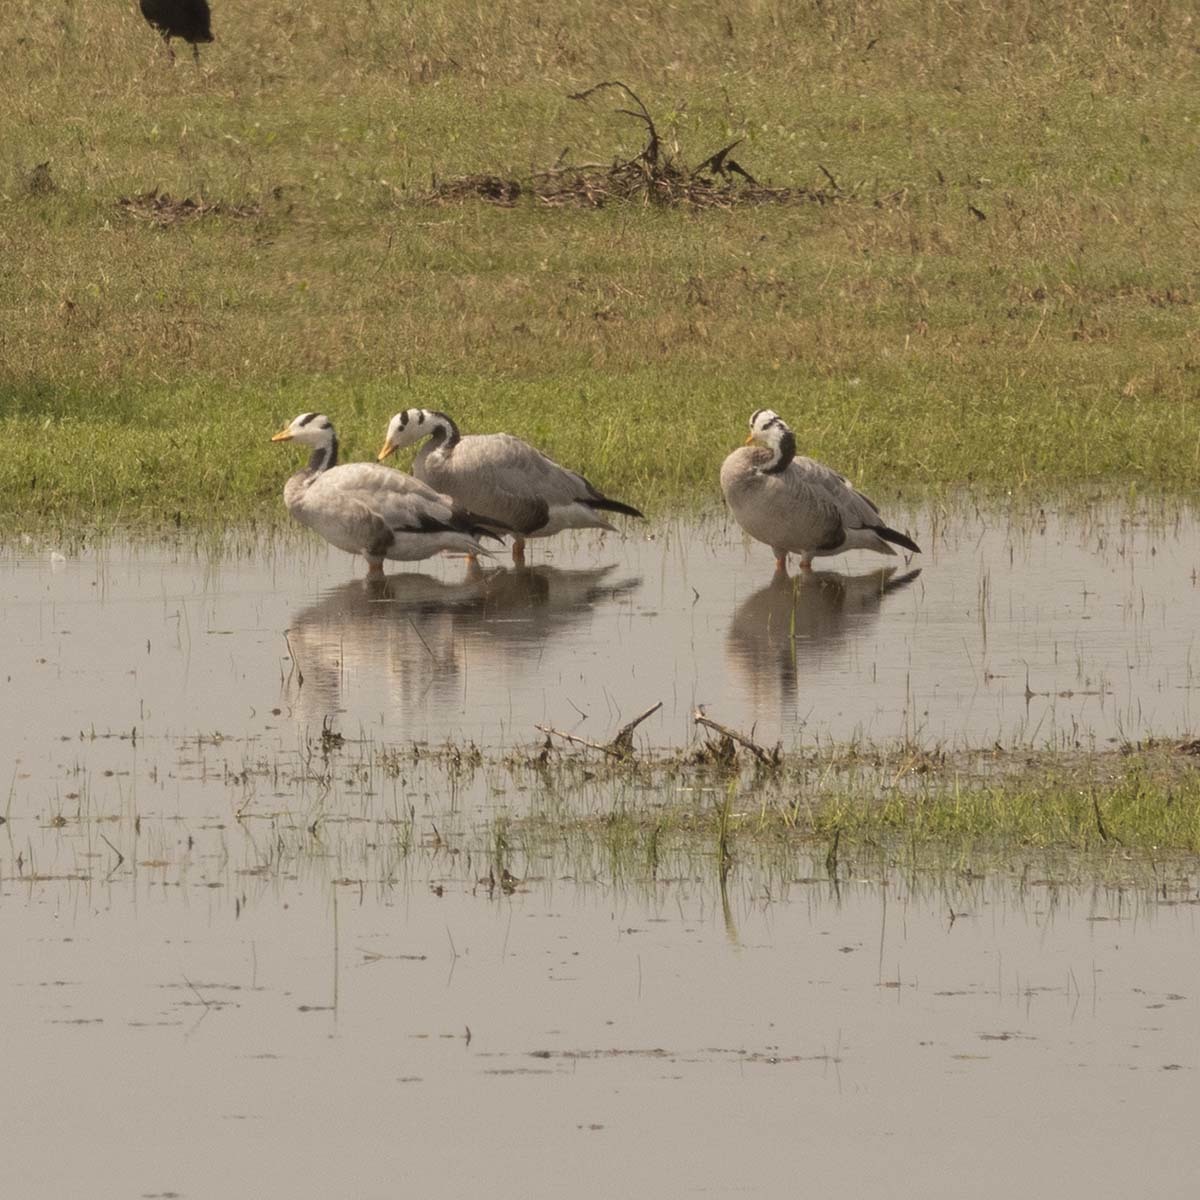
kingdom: Animalia
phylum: Chordata
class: Aves
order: Anseriformes
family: Anatidae
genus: Anser
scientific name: Anser indicus
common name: Bar-headed goose
